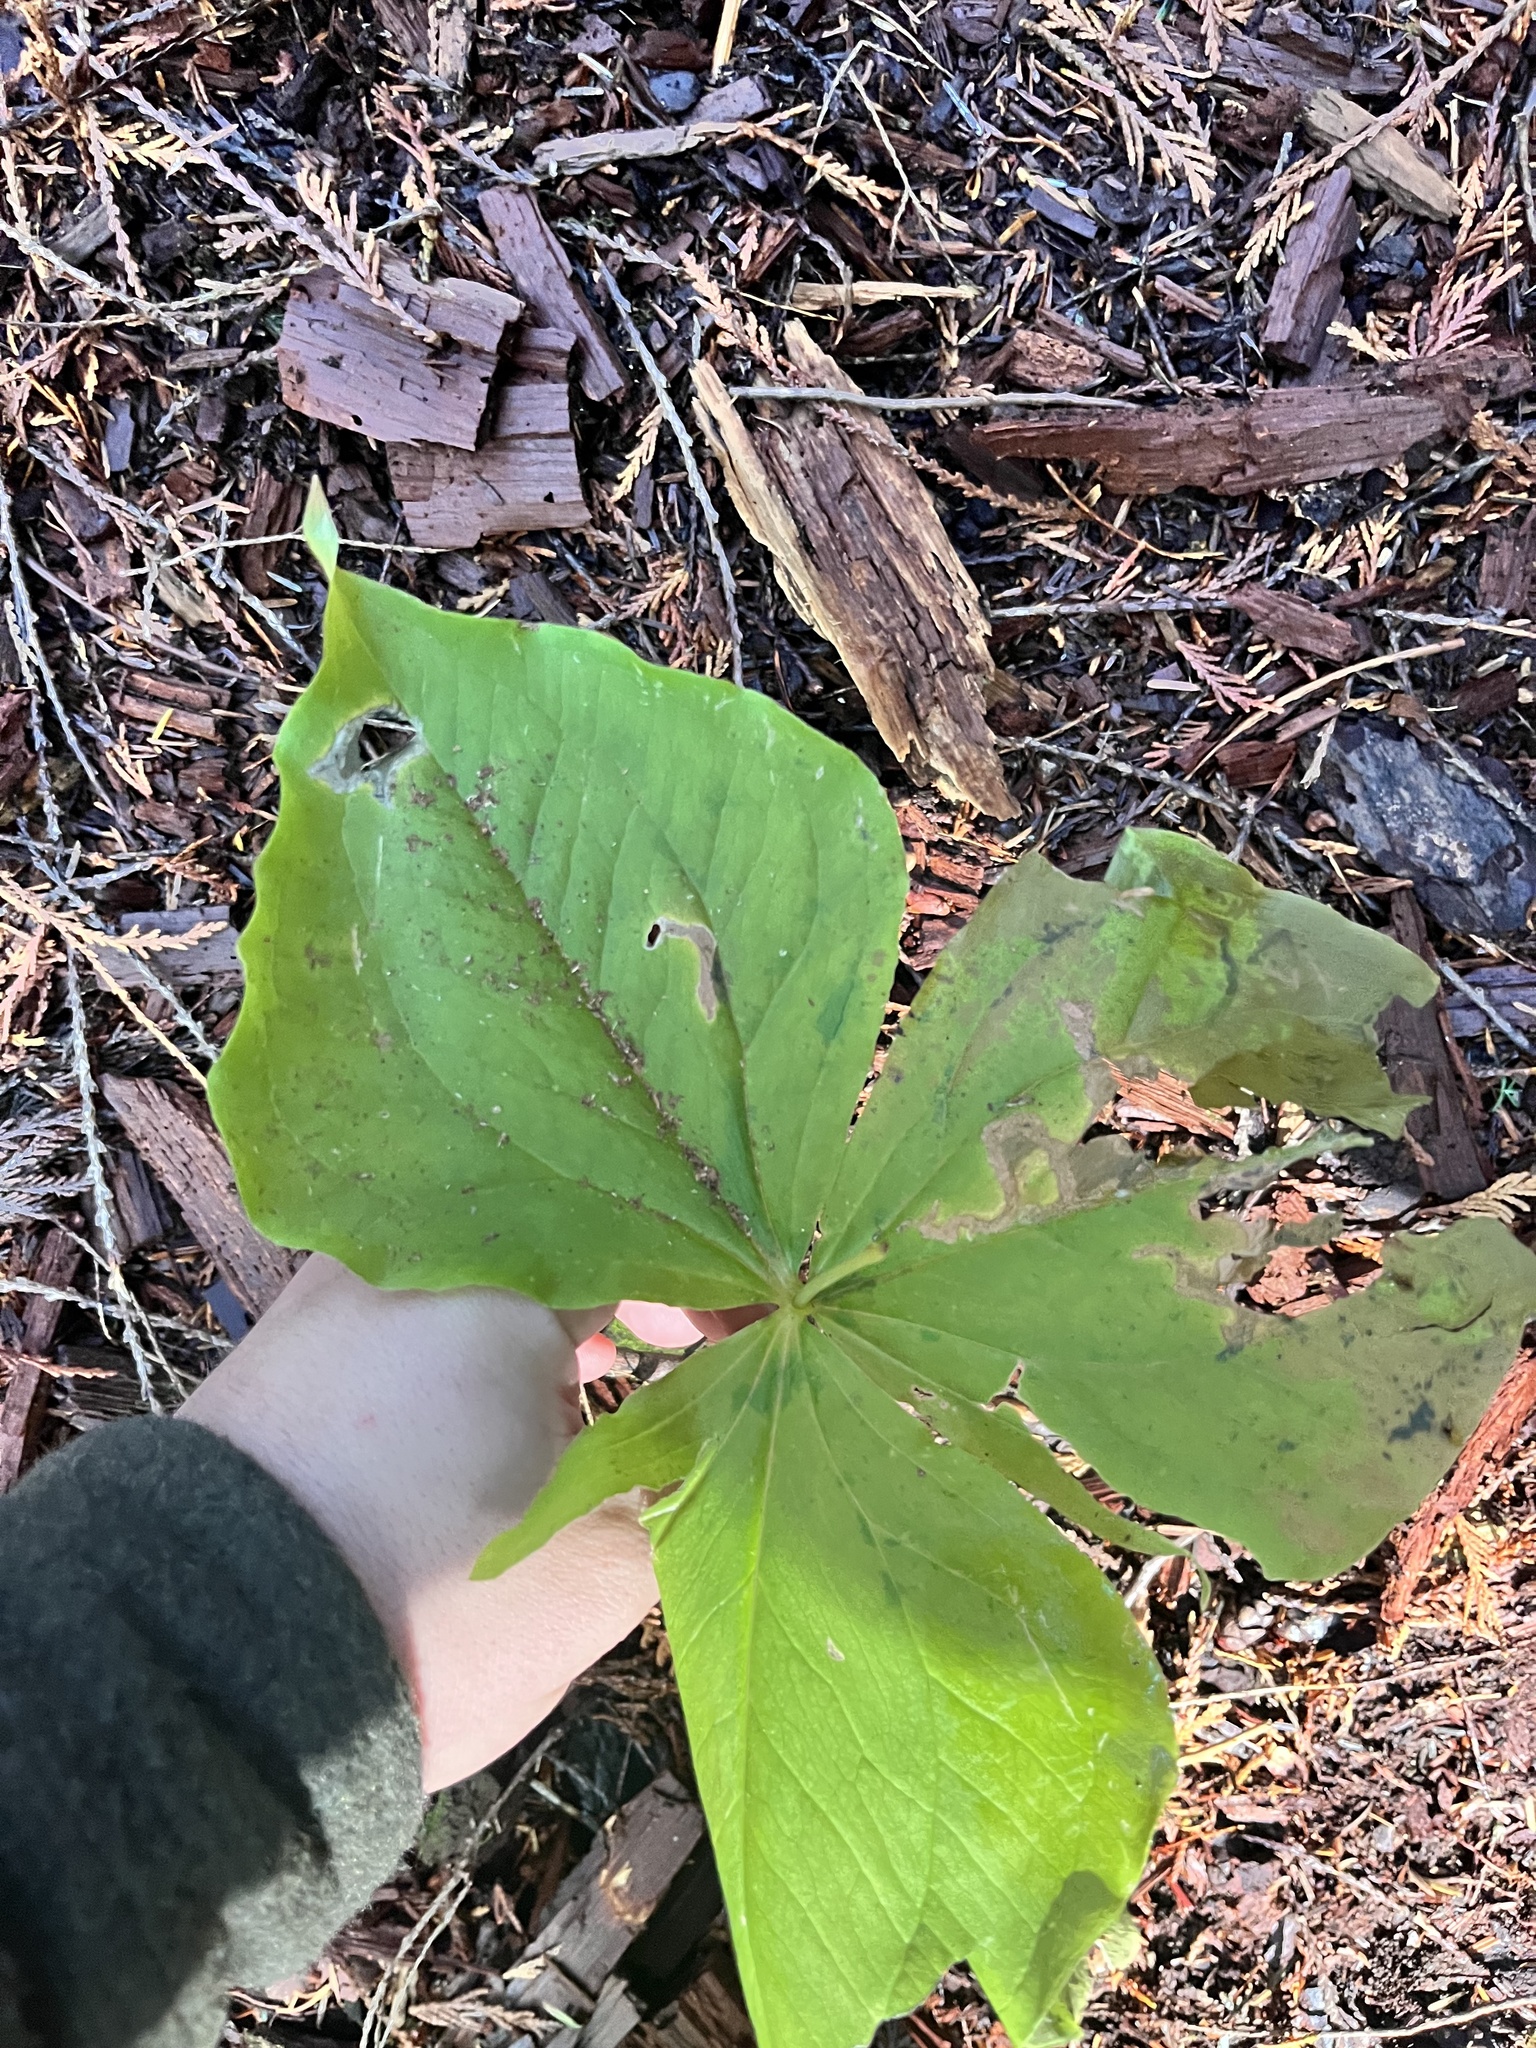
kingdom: Plantae
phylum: Tracheophyta
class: Liliopsida
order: Liliales
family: Melanthiaceae
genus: Trillium
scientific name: Trillium ovatum
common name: Pacific trillium
